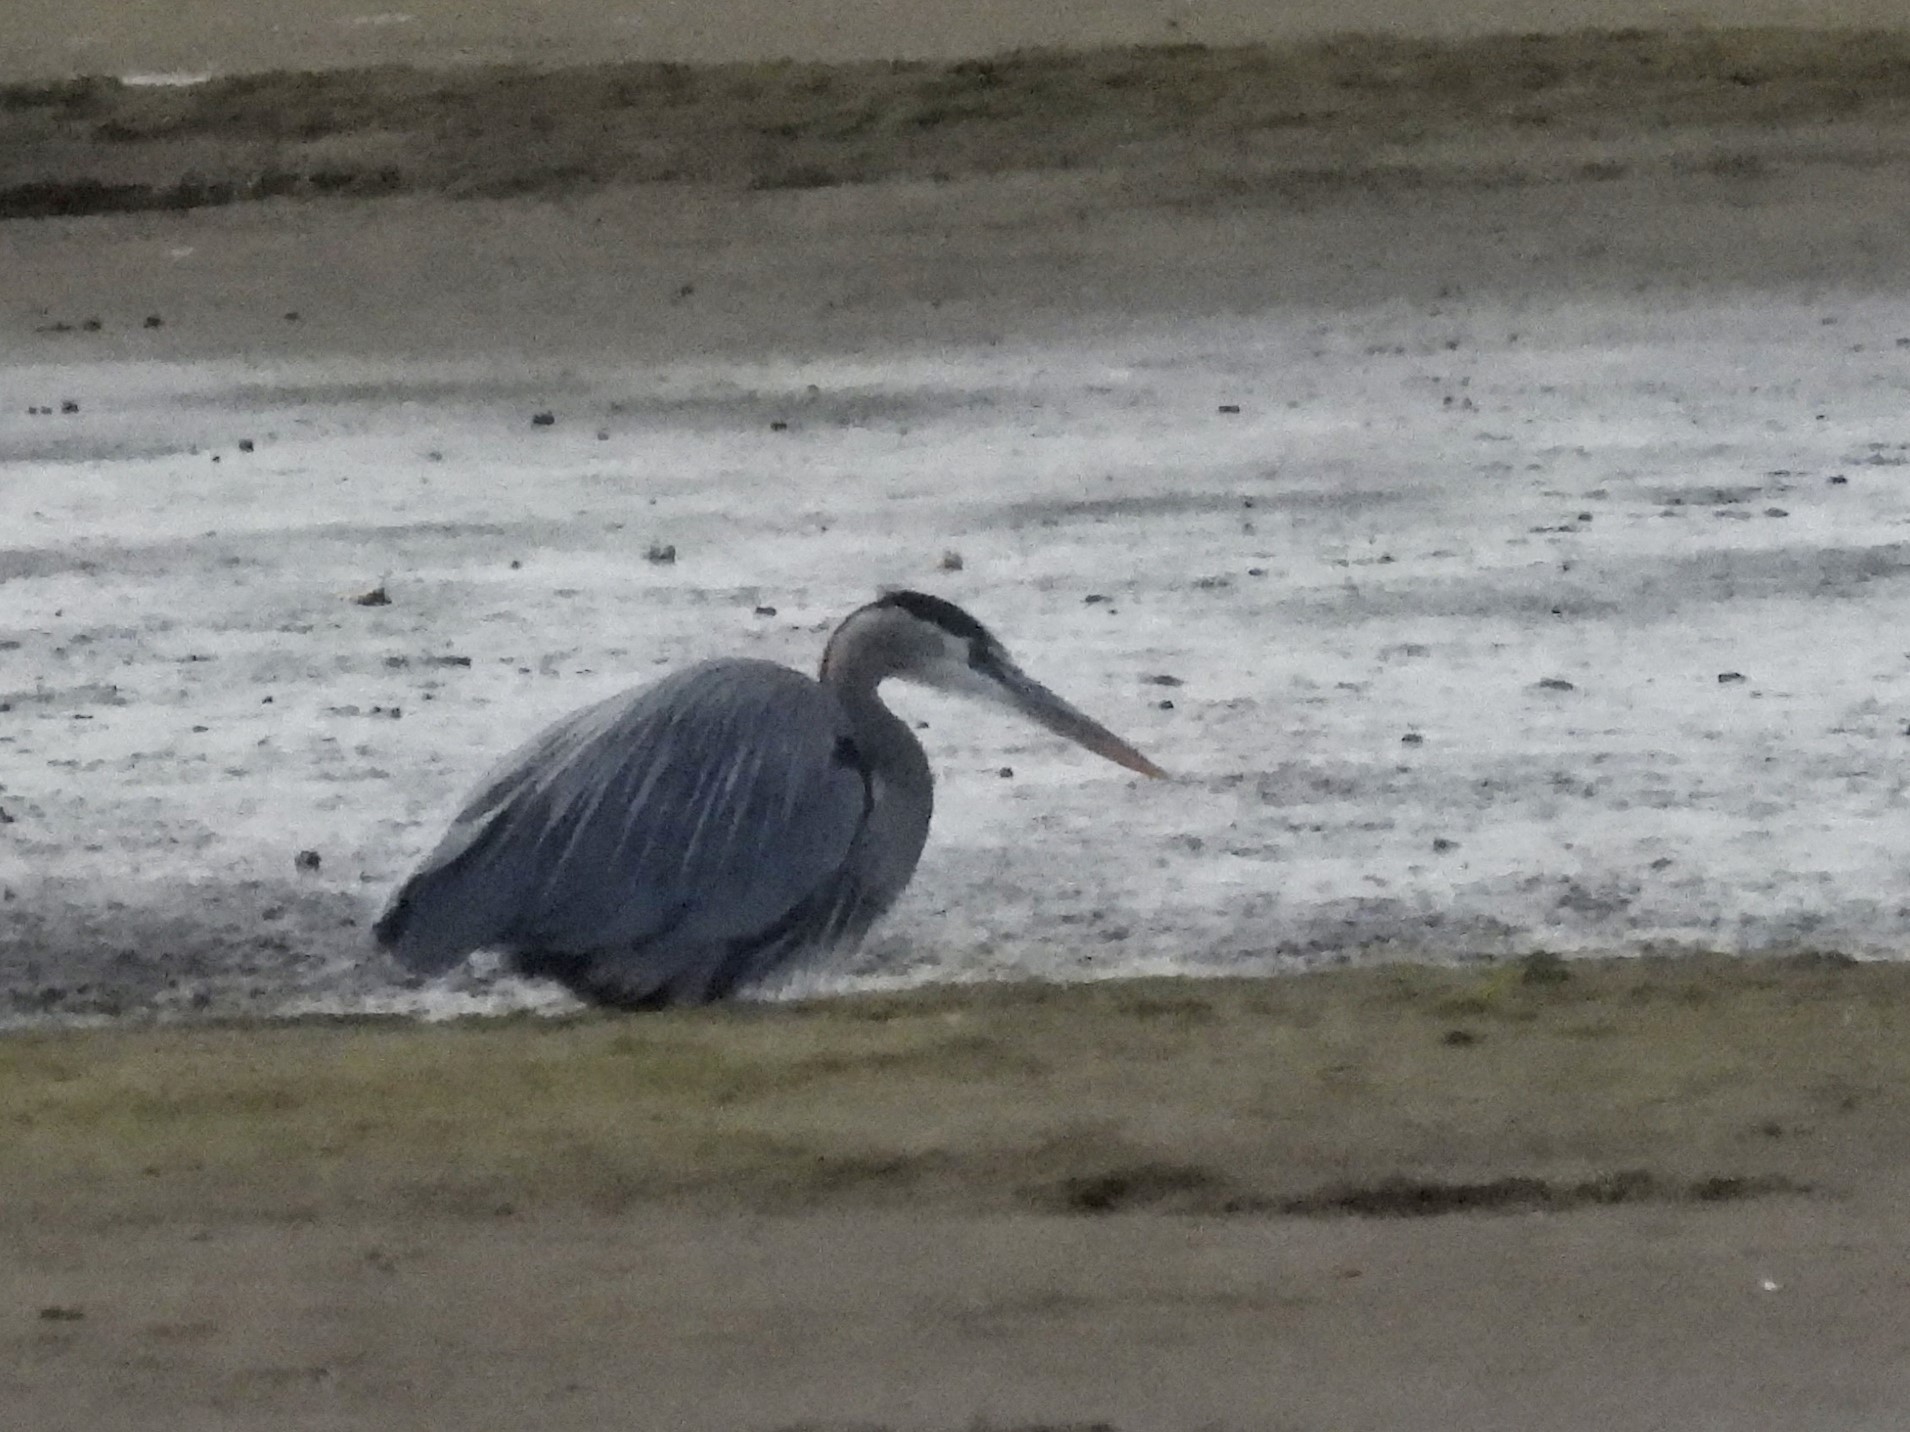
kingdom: Animalia
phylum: Chordata
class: Aves
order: Pelecaniformes
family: Ardeidae
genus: Ardea
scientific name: Ardea herodias
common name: Great blue heron
